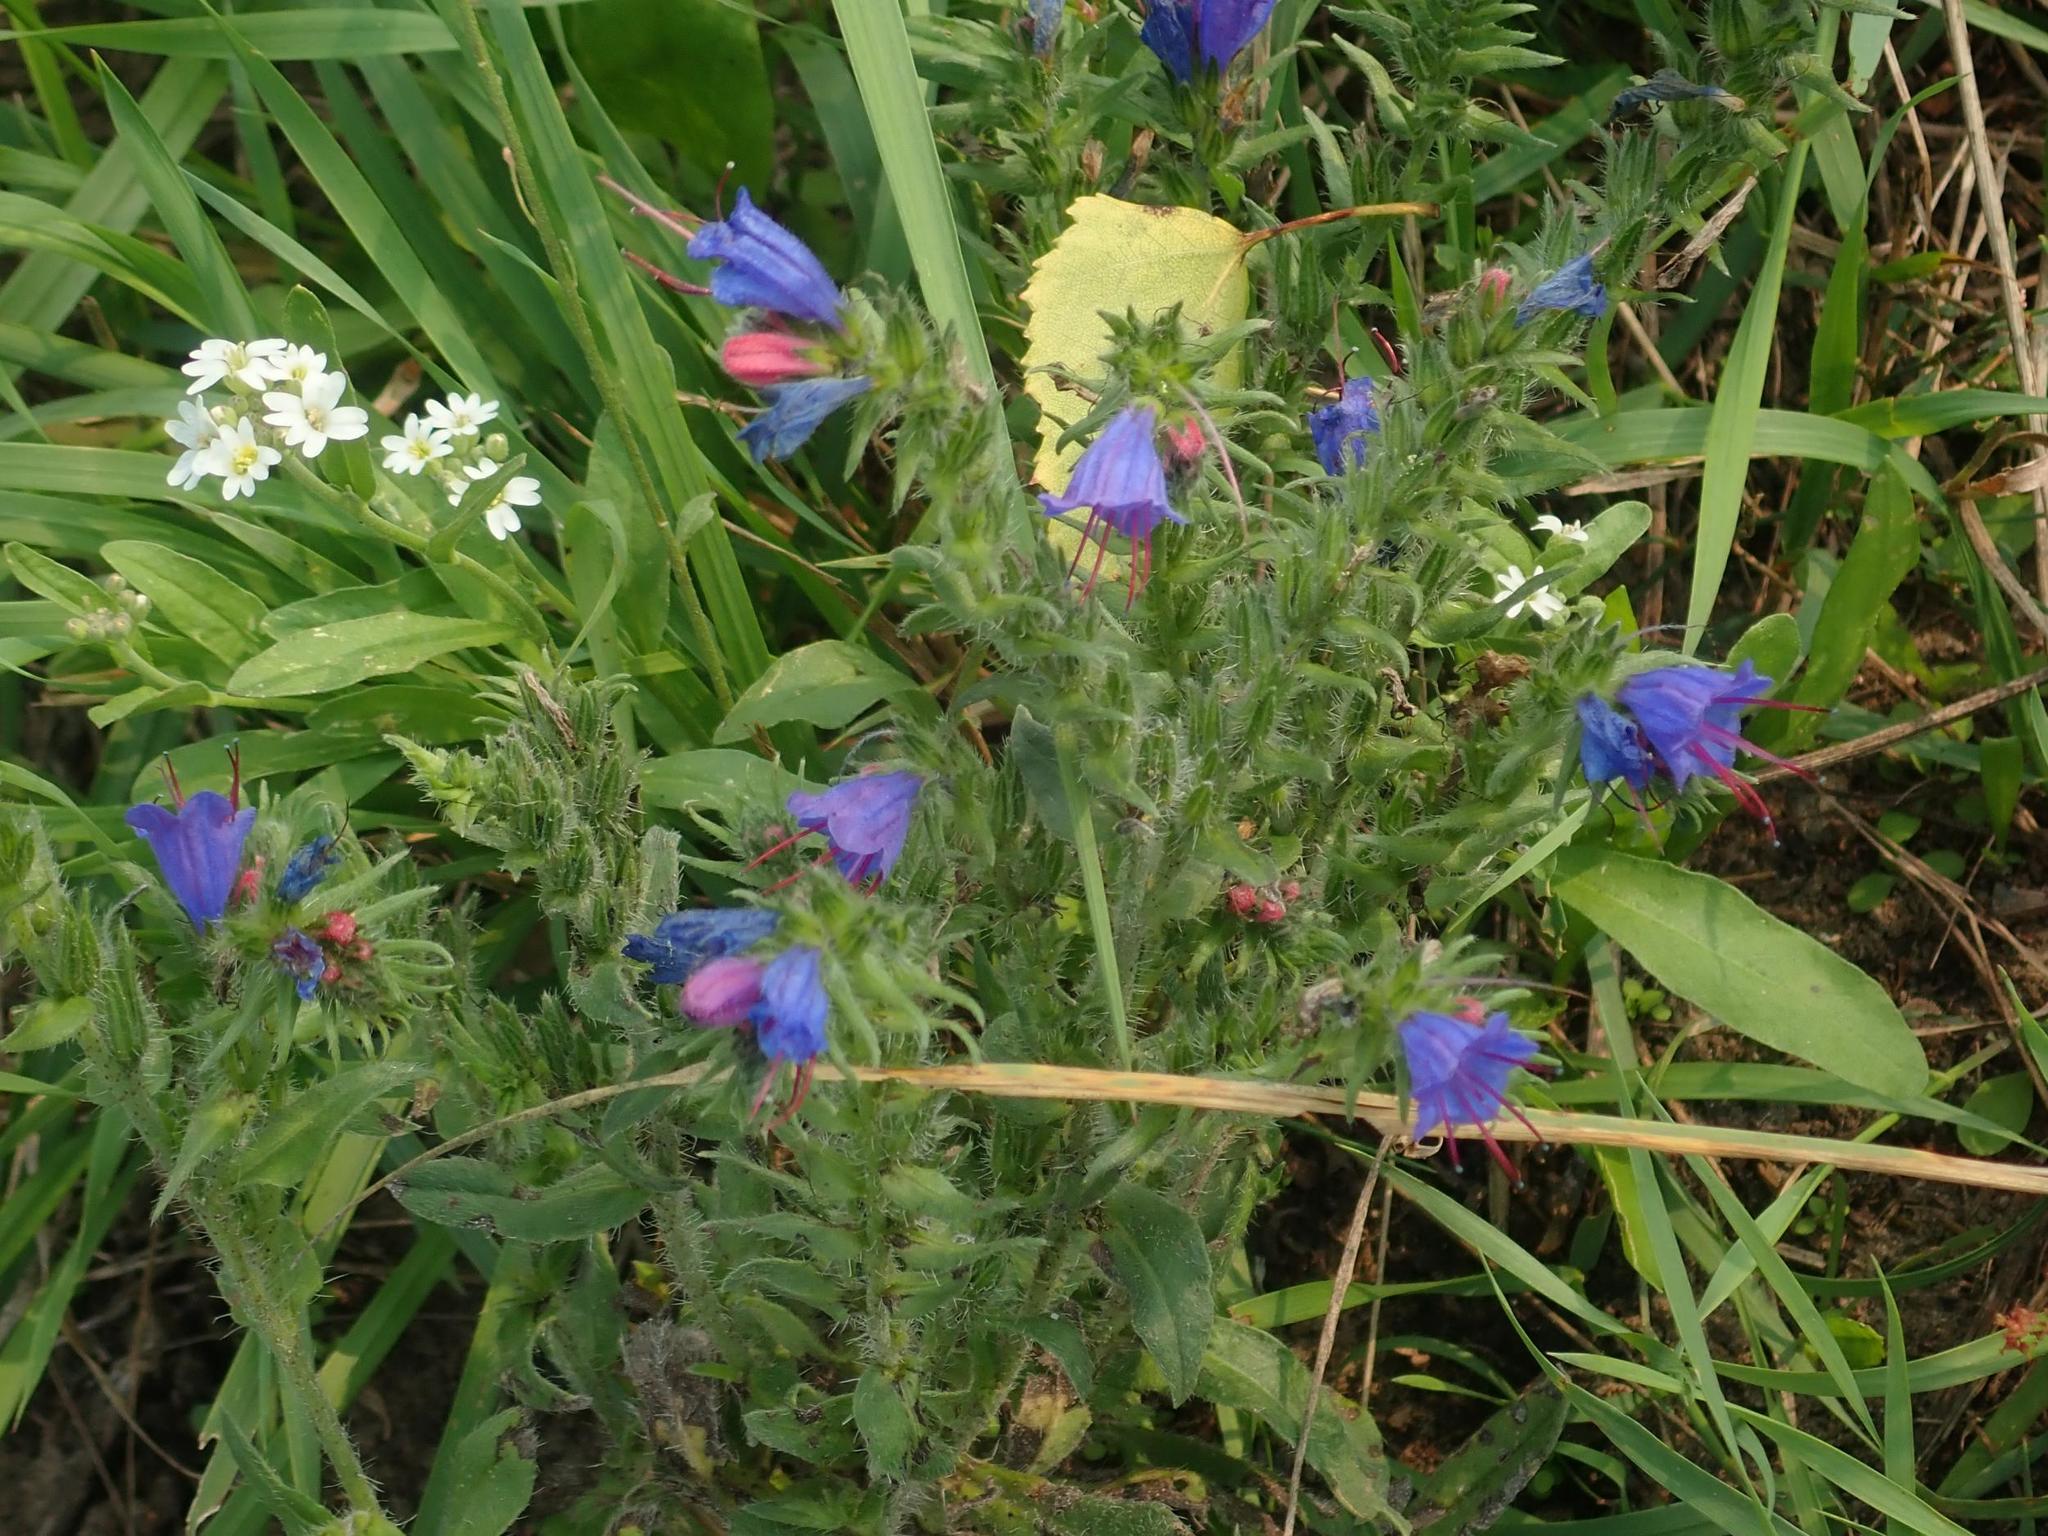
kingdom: Plantae
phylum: Tracheophyta
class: Magnoliopsida
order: Boraginales
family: Boraginaceae
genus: Echium
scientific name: Echium vulgare
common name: Common viper's bugloss
